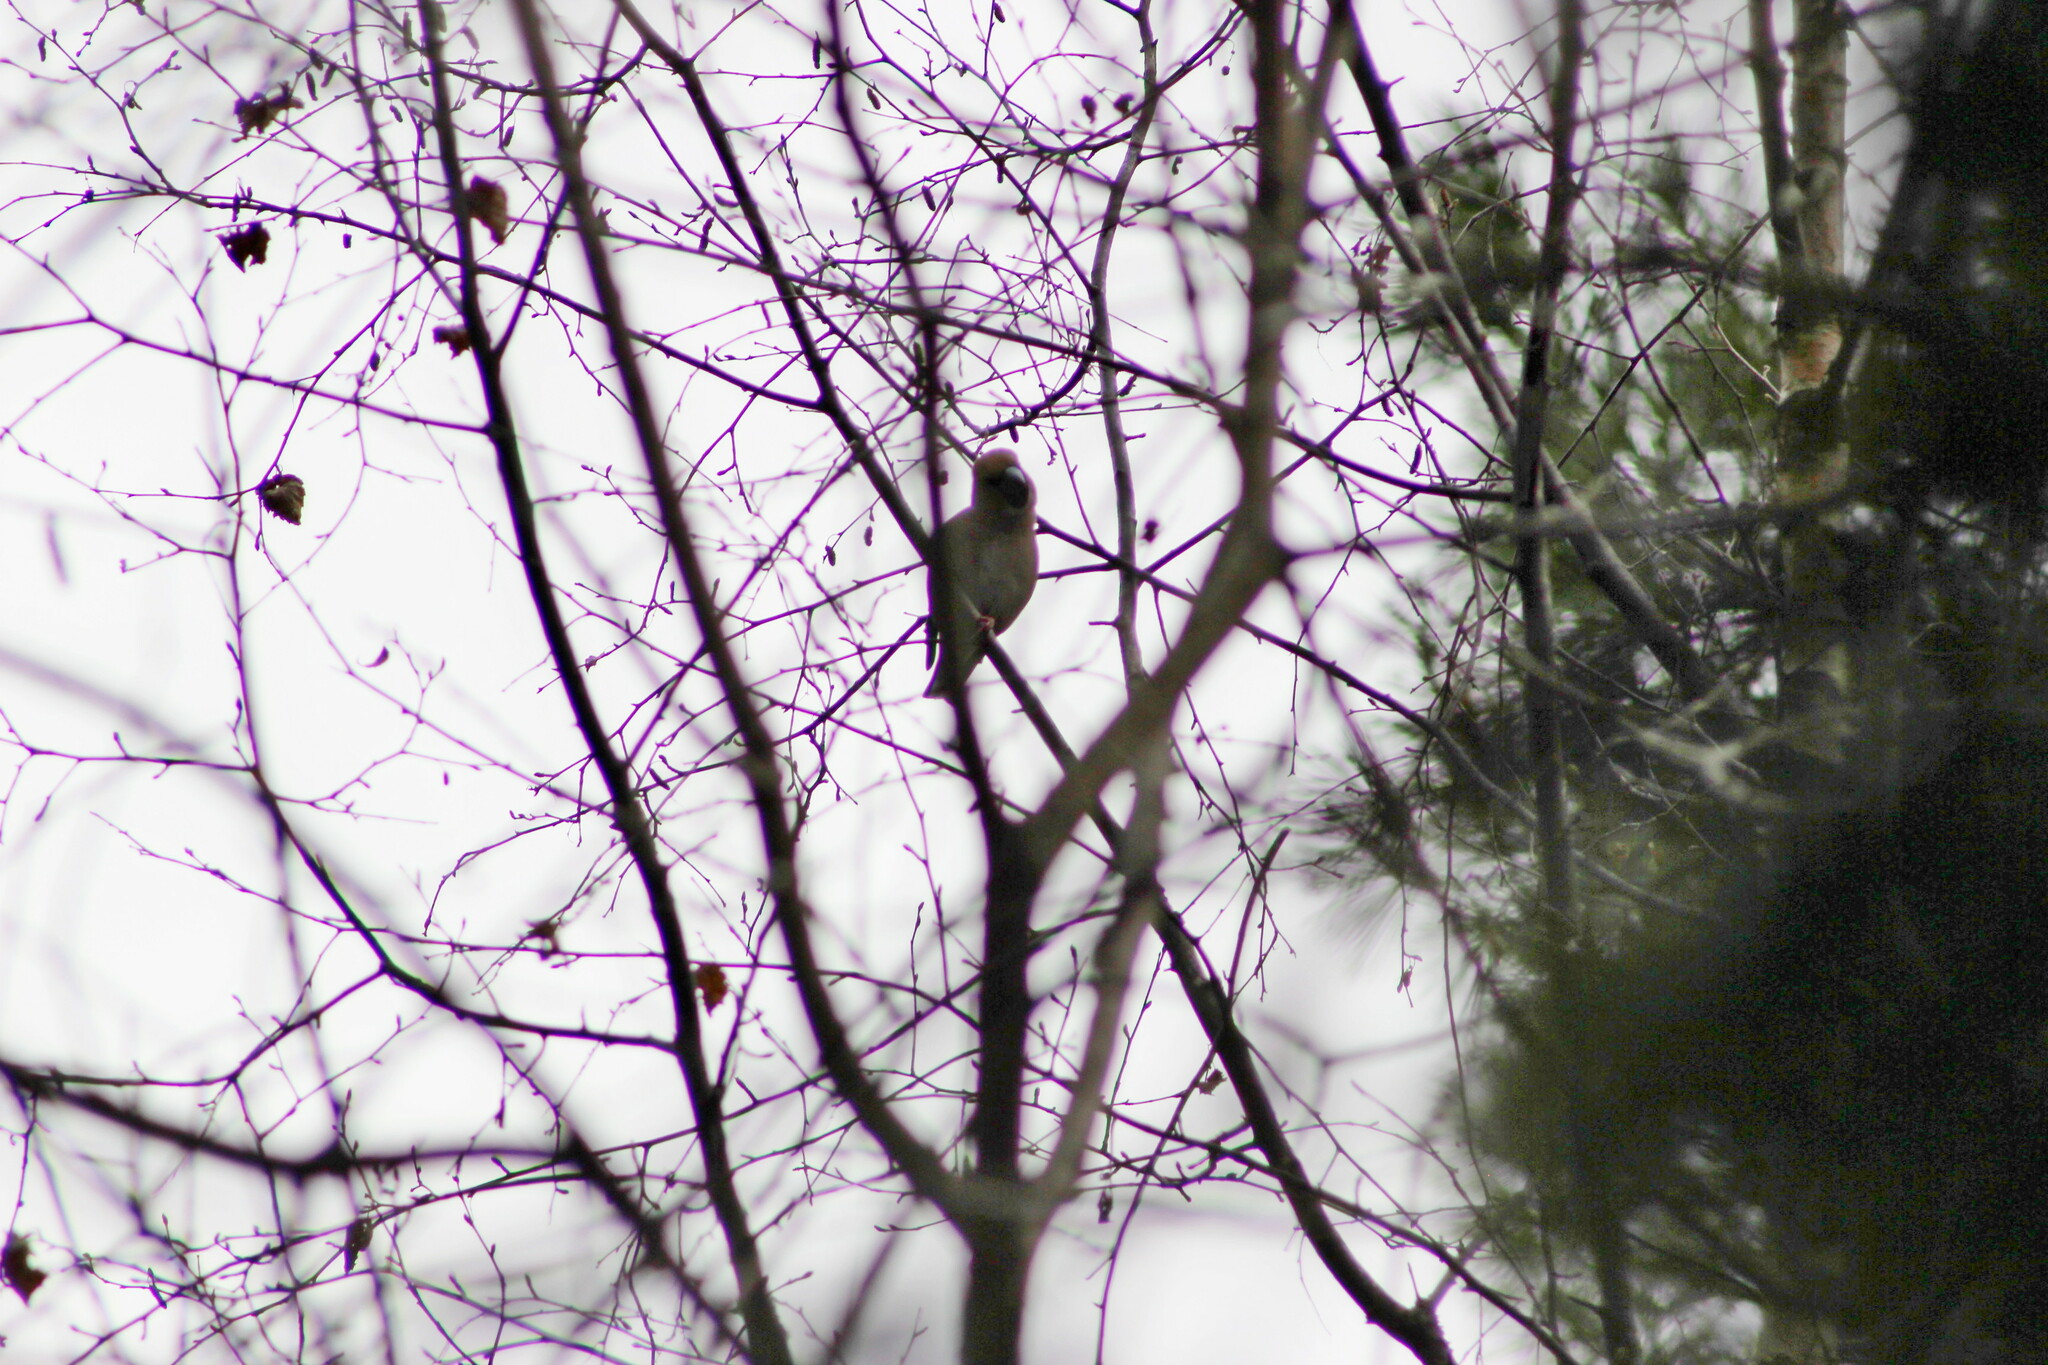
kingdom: Animalia
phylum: Chordata
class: Aves
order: Passeriformes
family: Fringillidae
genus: Coccothraustes
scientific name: Coccothraustes coccothraustes
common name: Hawfinch
